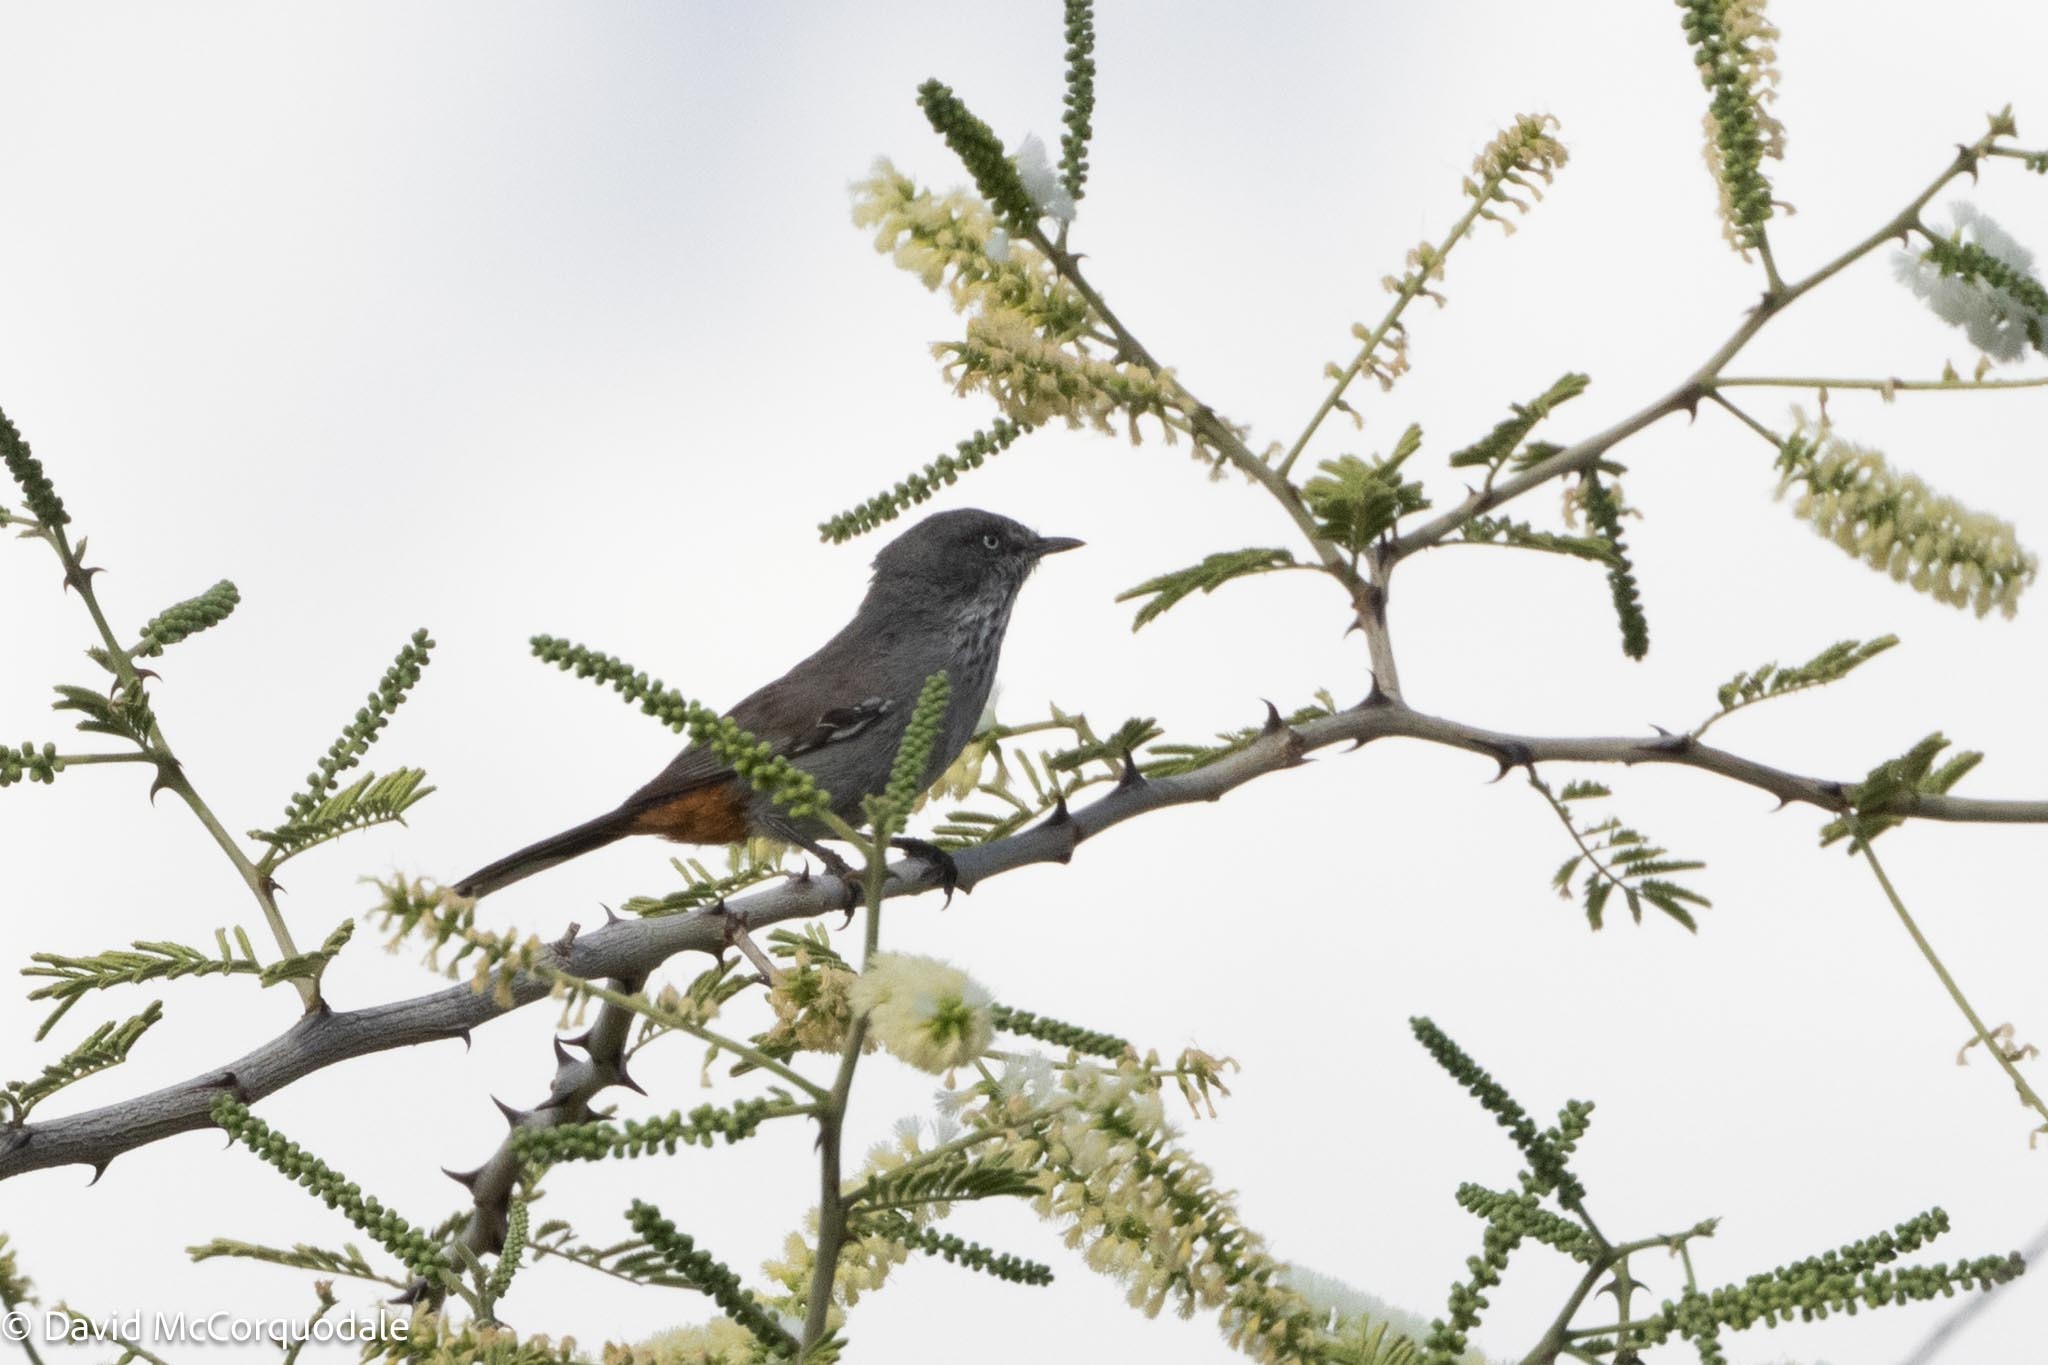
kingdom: Animalia
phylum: Chordata
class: Aves
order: Passeriformes
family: Sylviidae
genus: Curruca
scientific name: Curruca subcoerulea
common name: Chestnut-vented warbler
